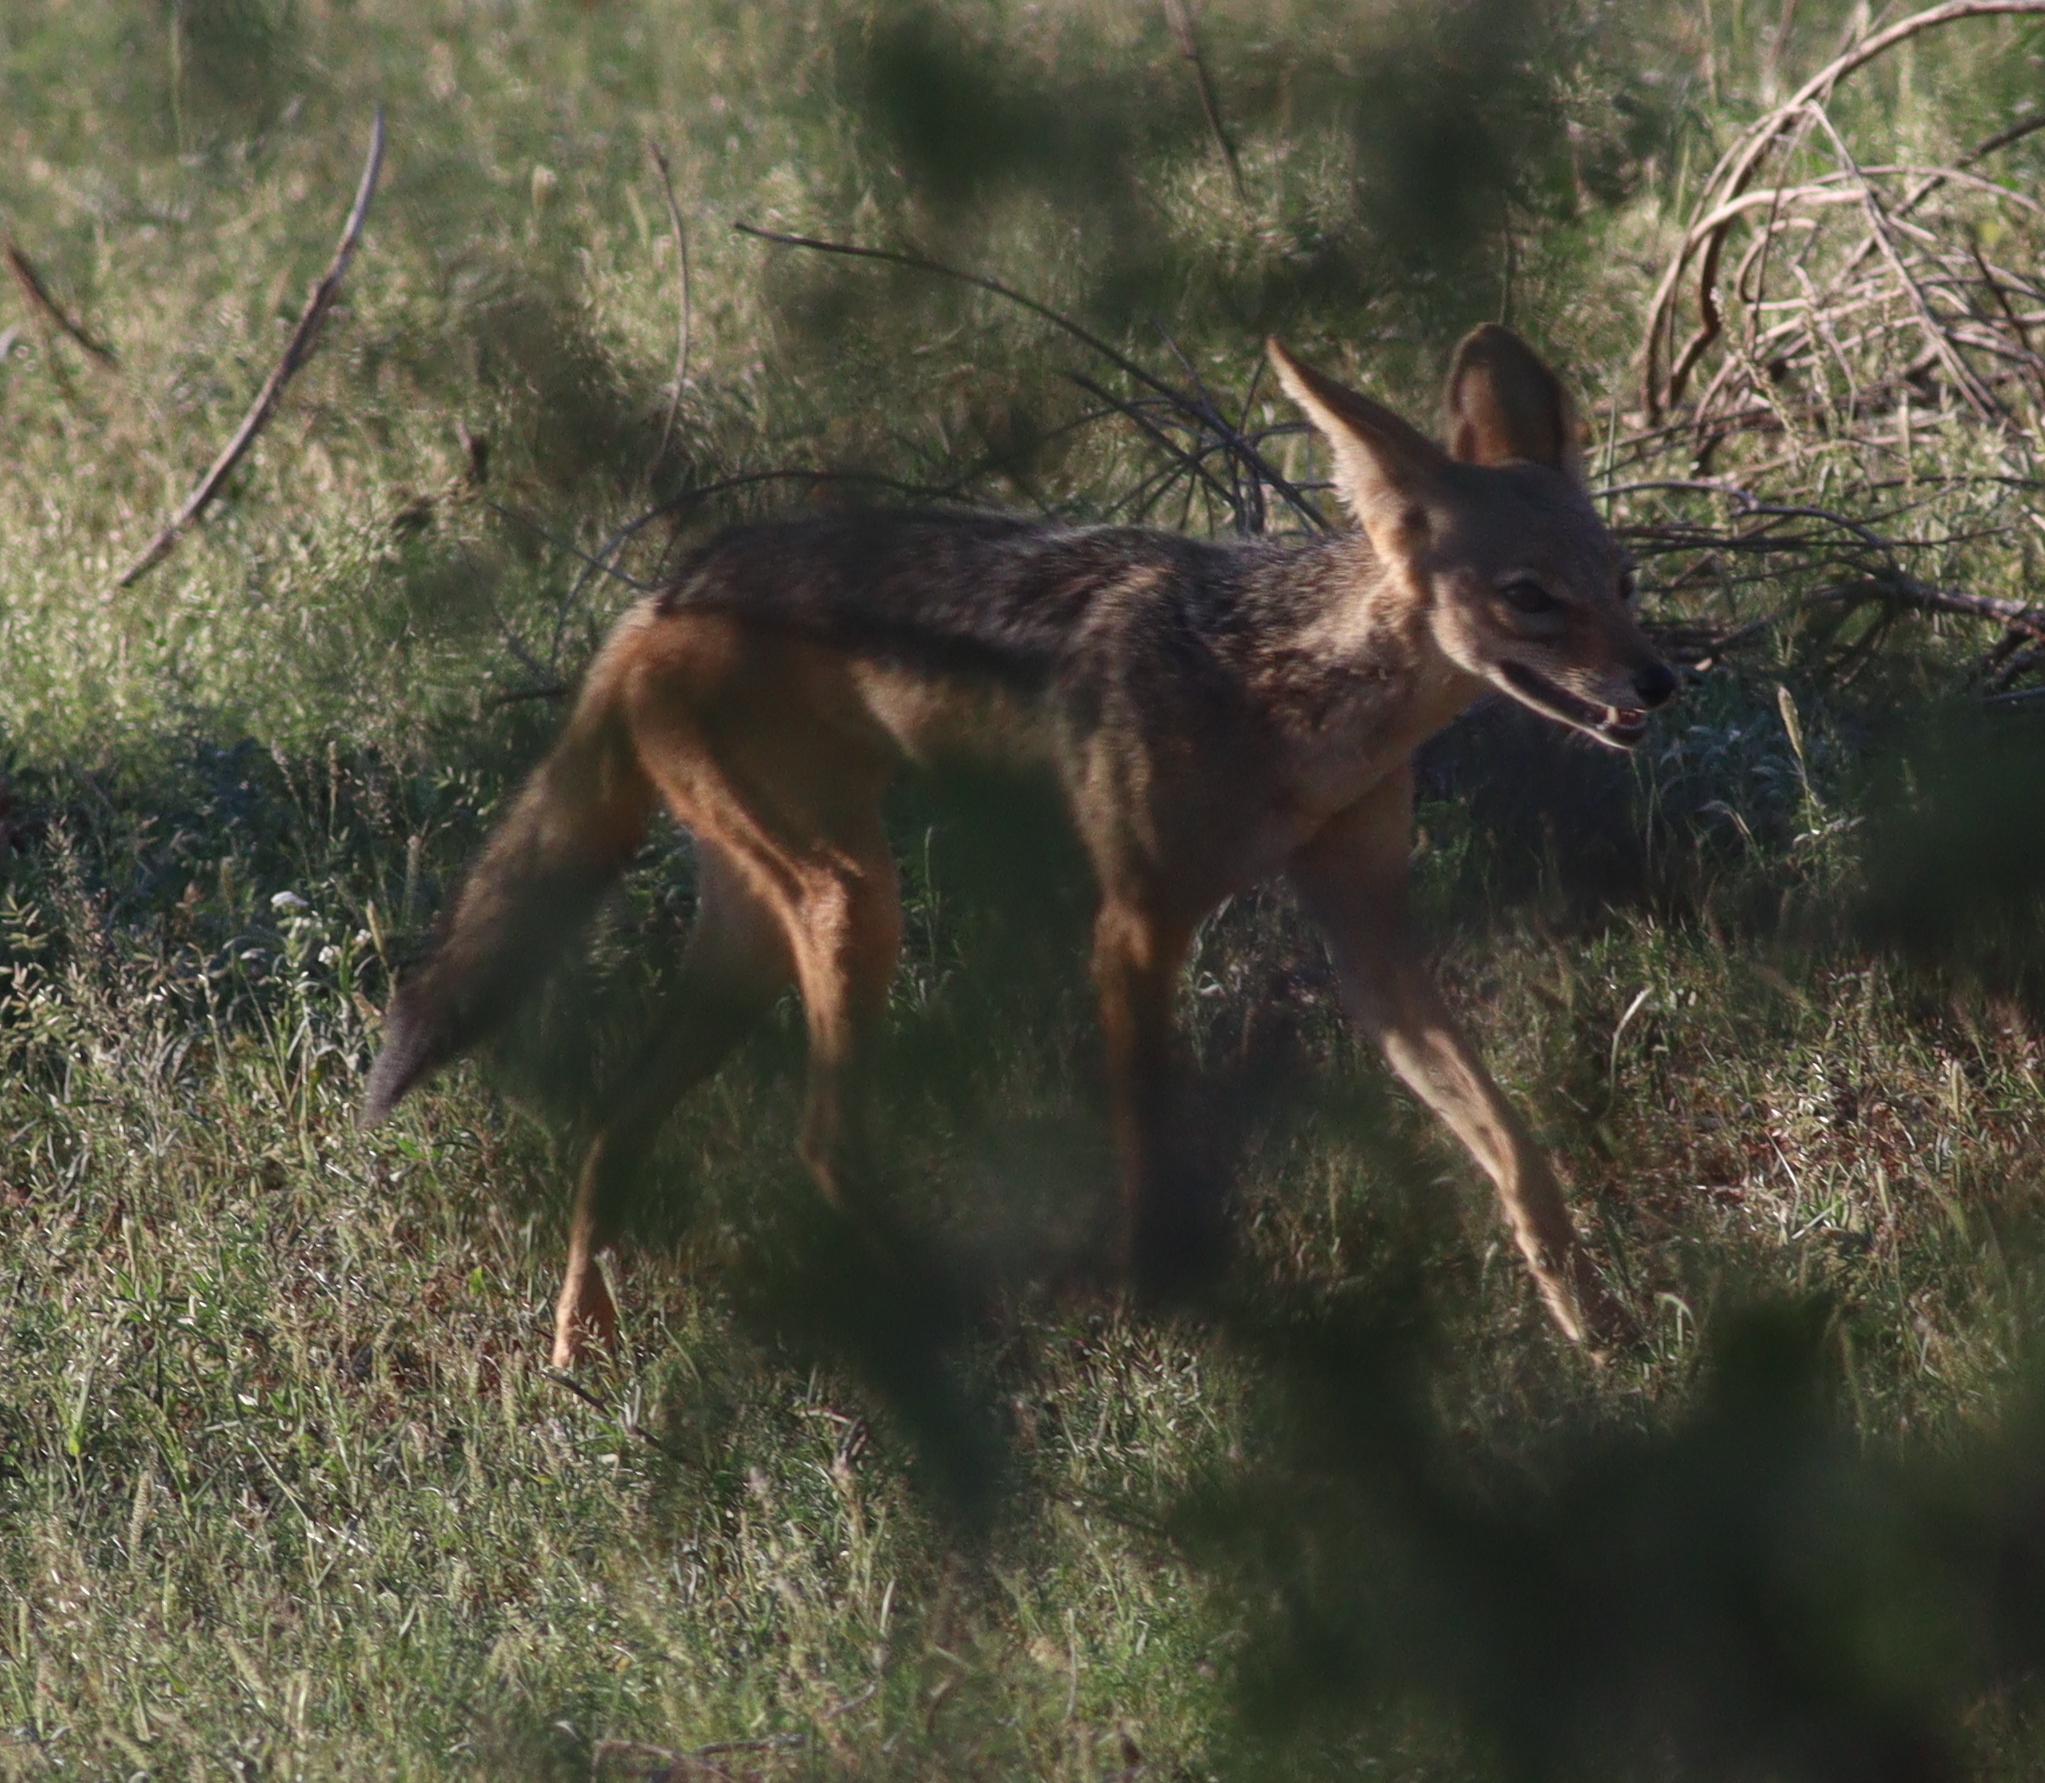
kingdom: Animalia
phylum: Chordata
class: Mammalia
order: Carnivora
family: Canidae
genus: Lupulella
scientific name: Lupulella
